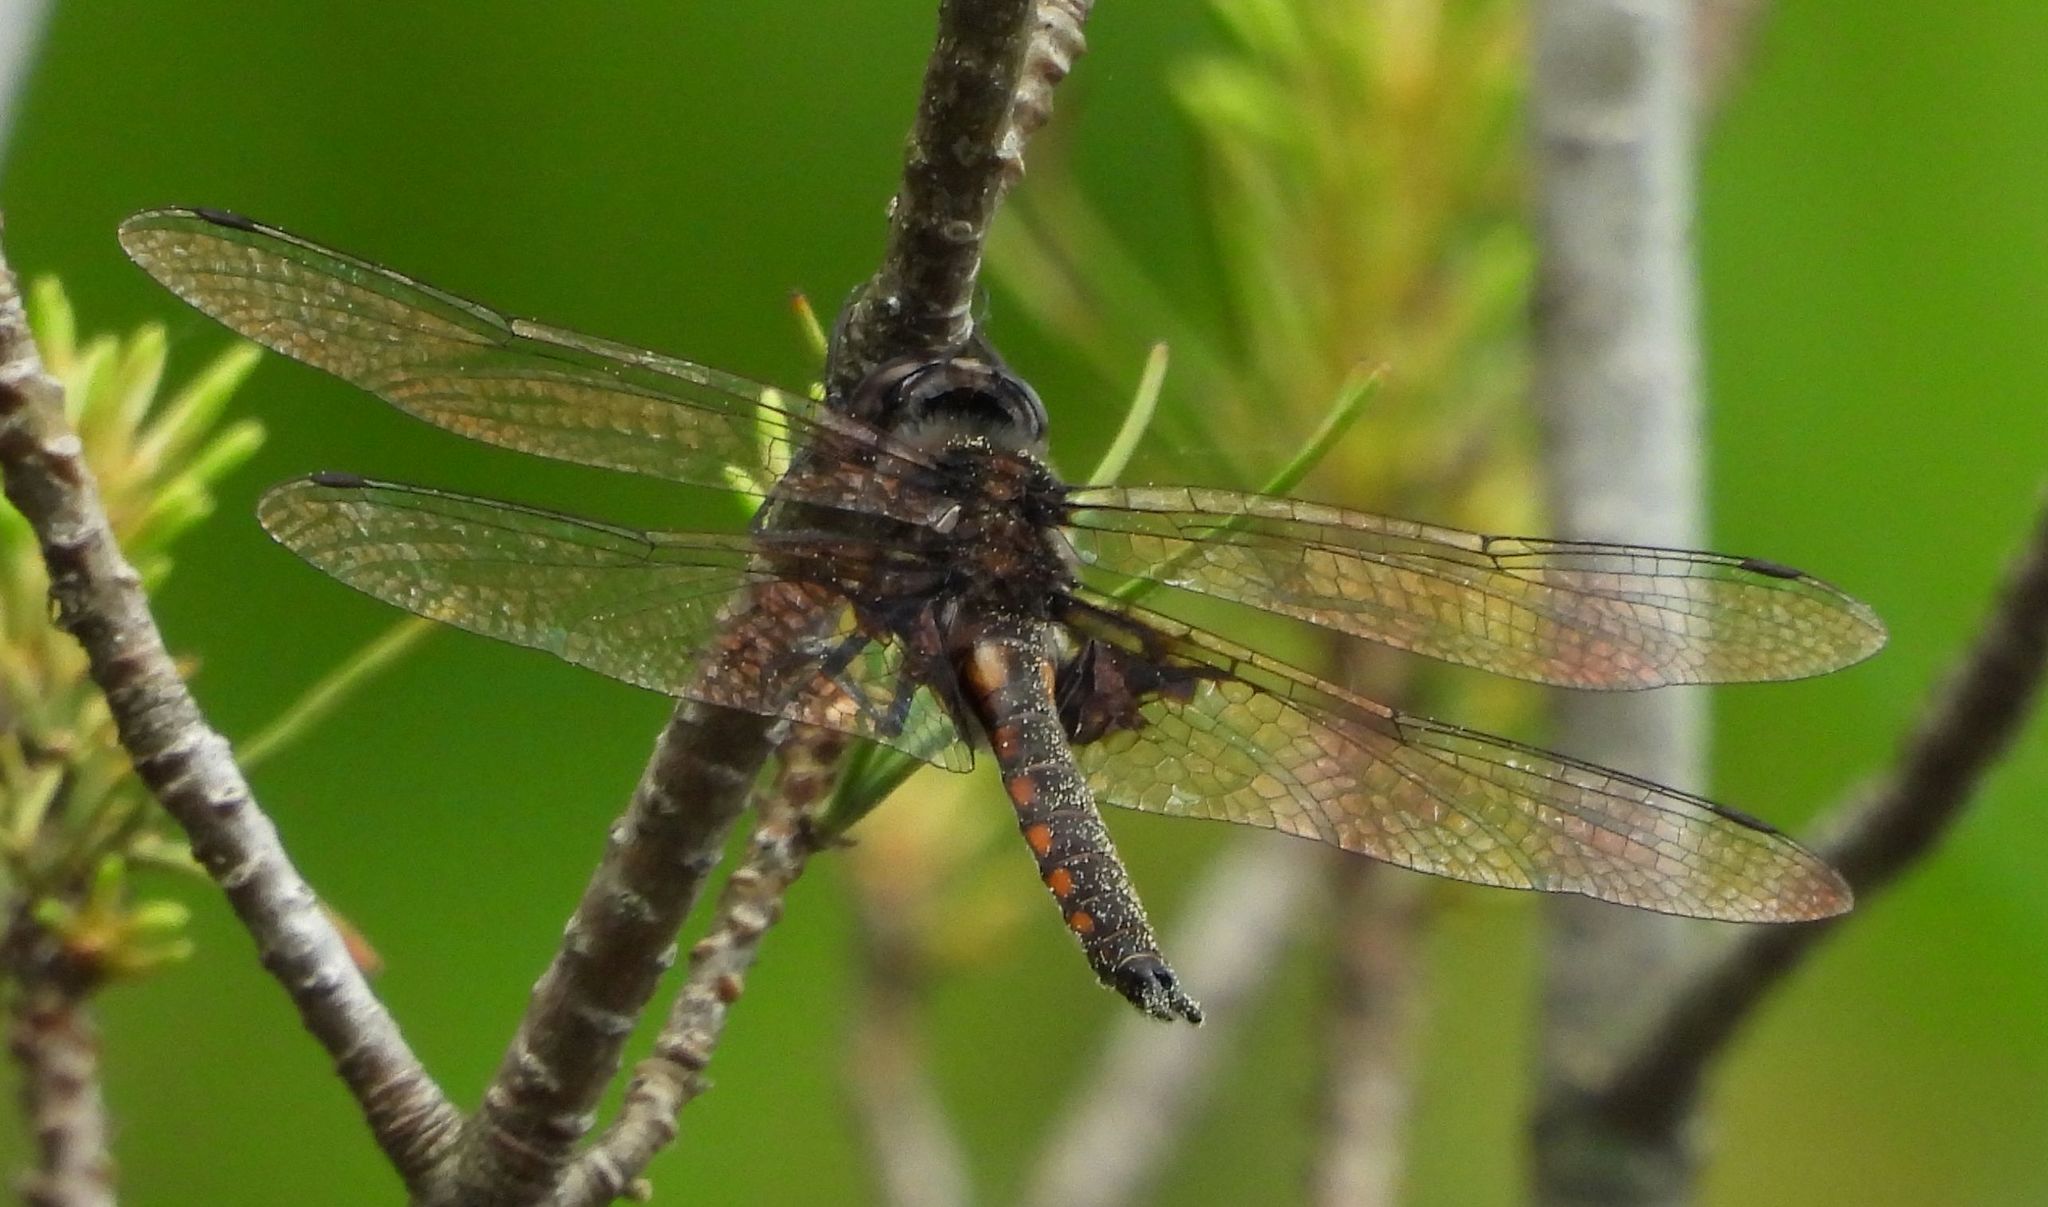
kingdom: Animalia
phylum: Arthropoda
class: Insecta
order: Odonata
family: Corduliidae
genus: Epitheca
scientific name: Epitheca cynosura
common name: Common baskettail
